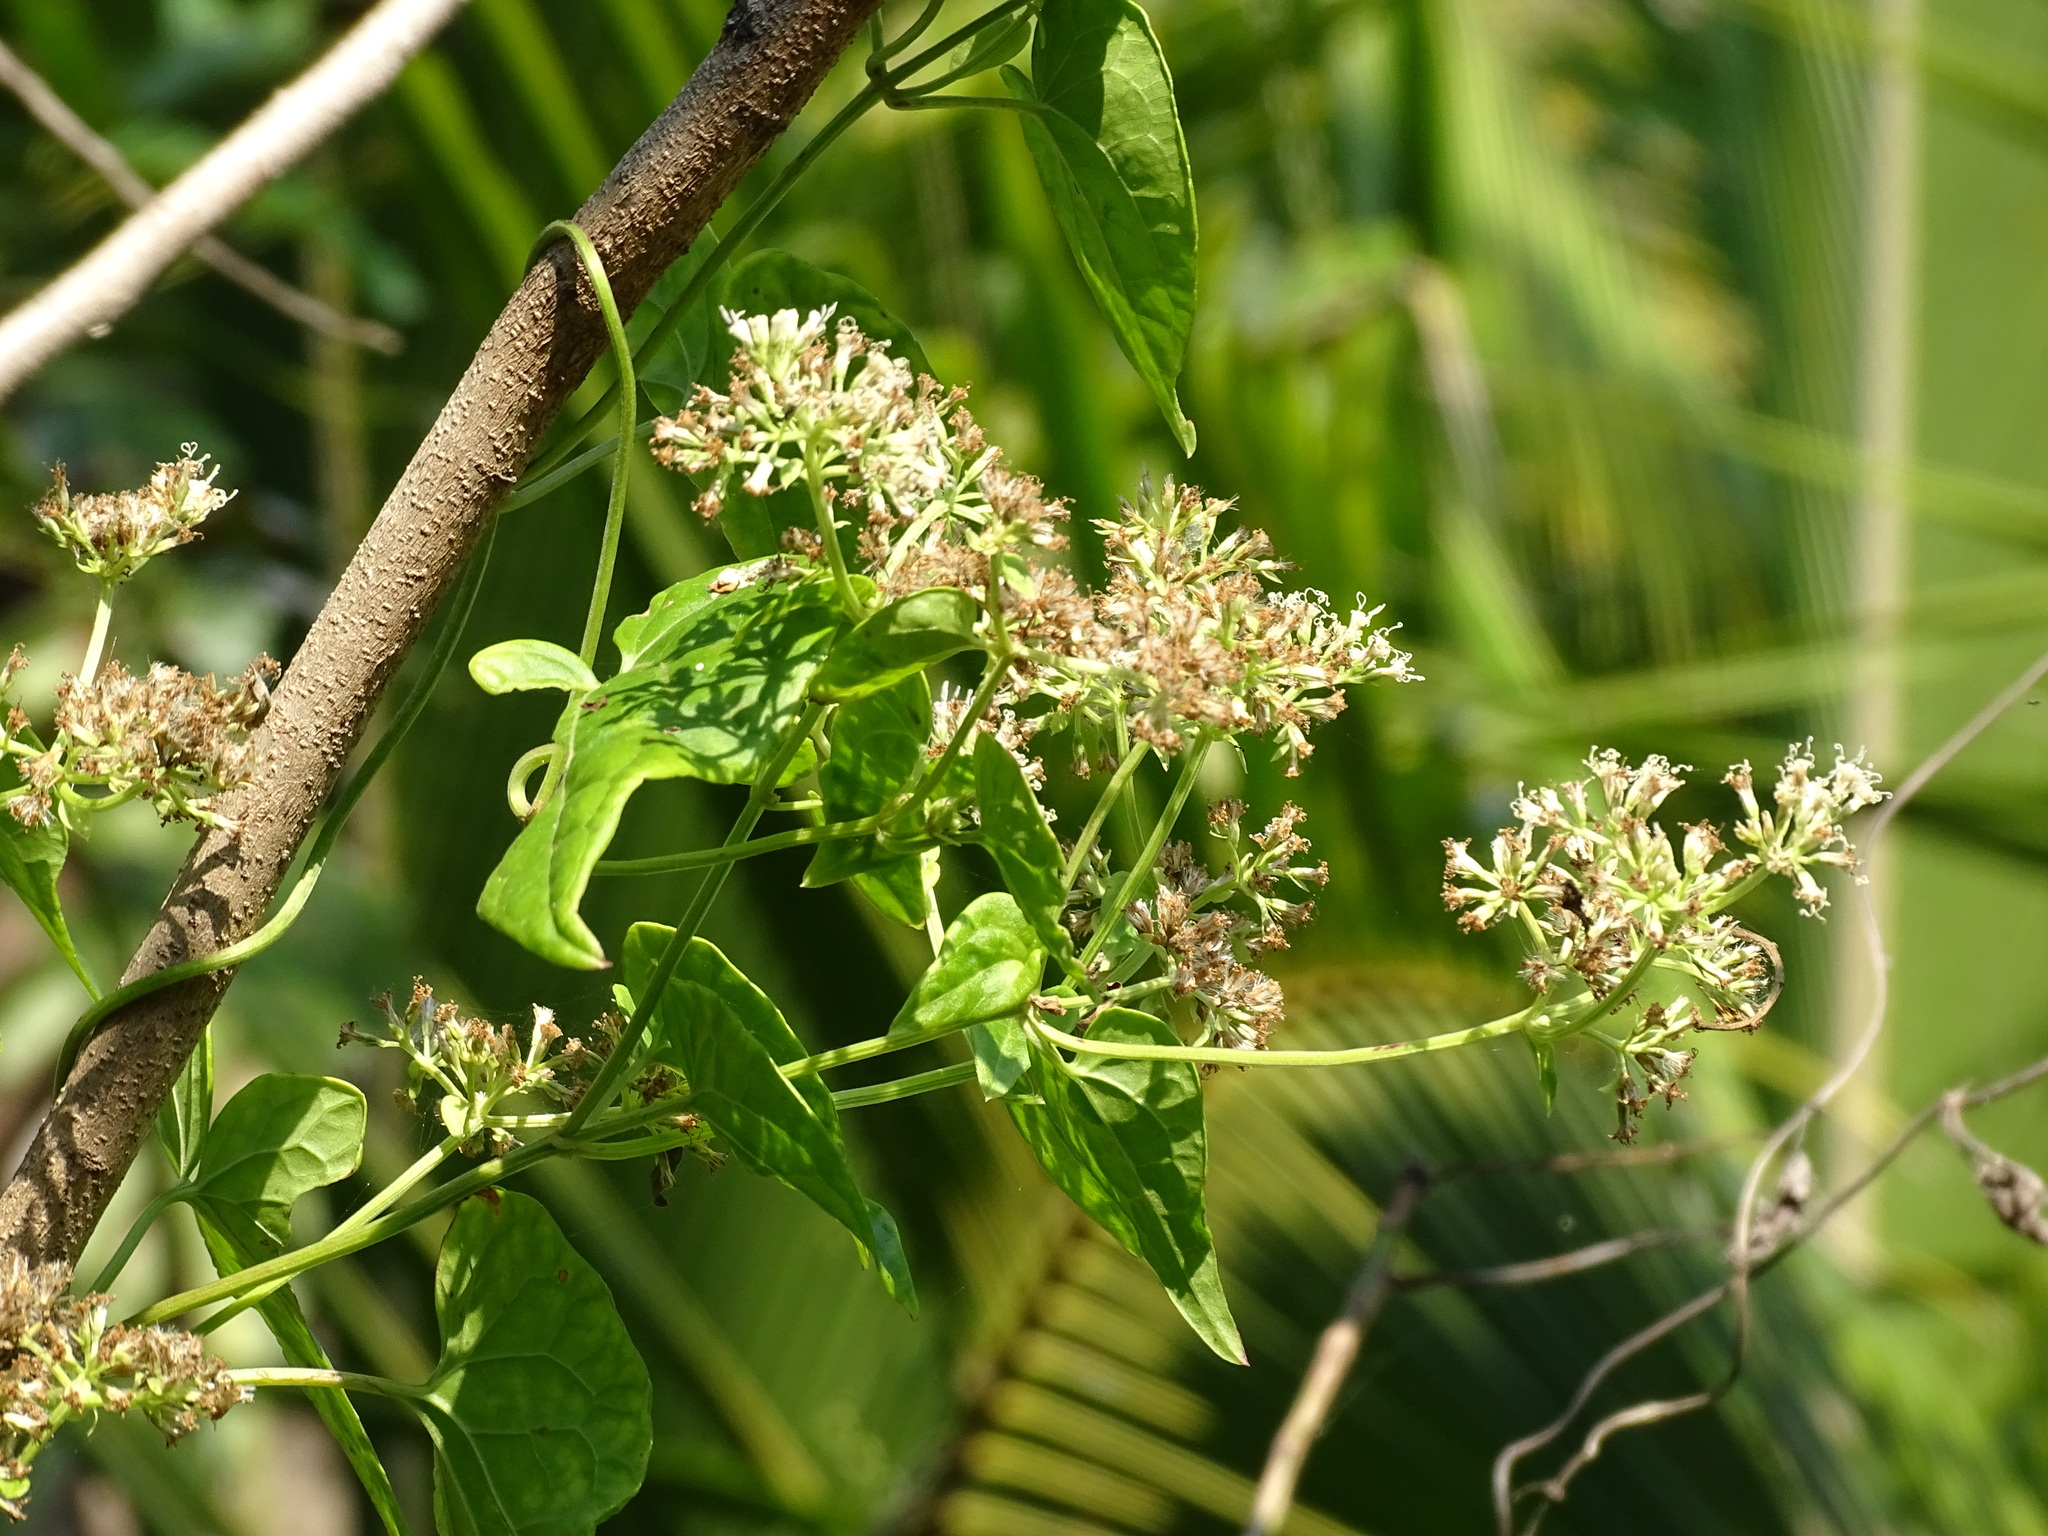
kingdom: Plantae
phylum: Tracheophyta
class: Magnoliopsida
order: Asterales
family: Asteraceae
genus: Mikania
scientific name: Mikania micrantha
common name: Mile-a-minute
